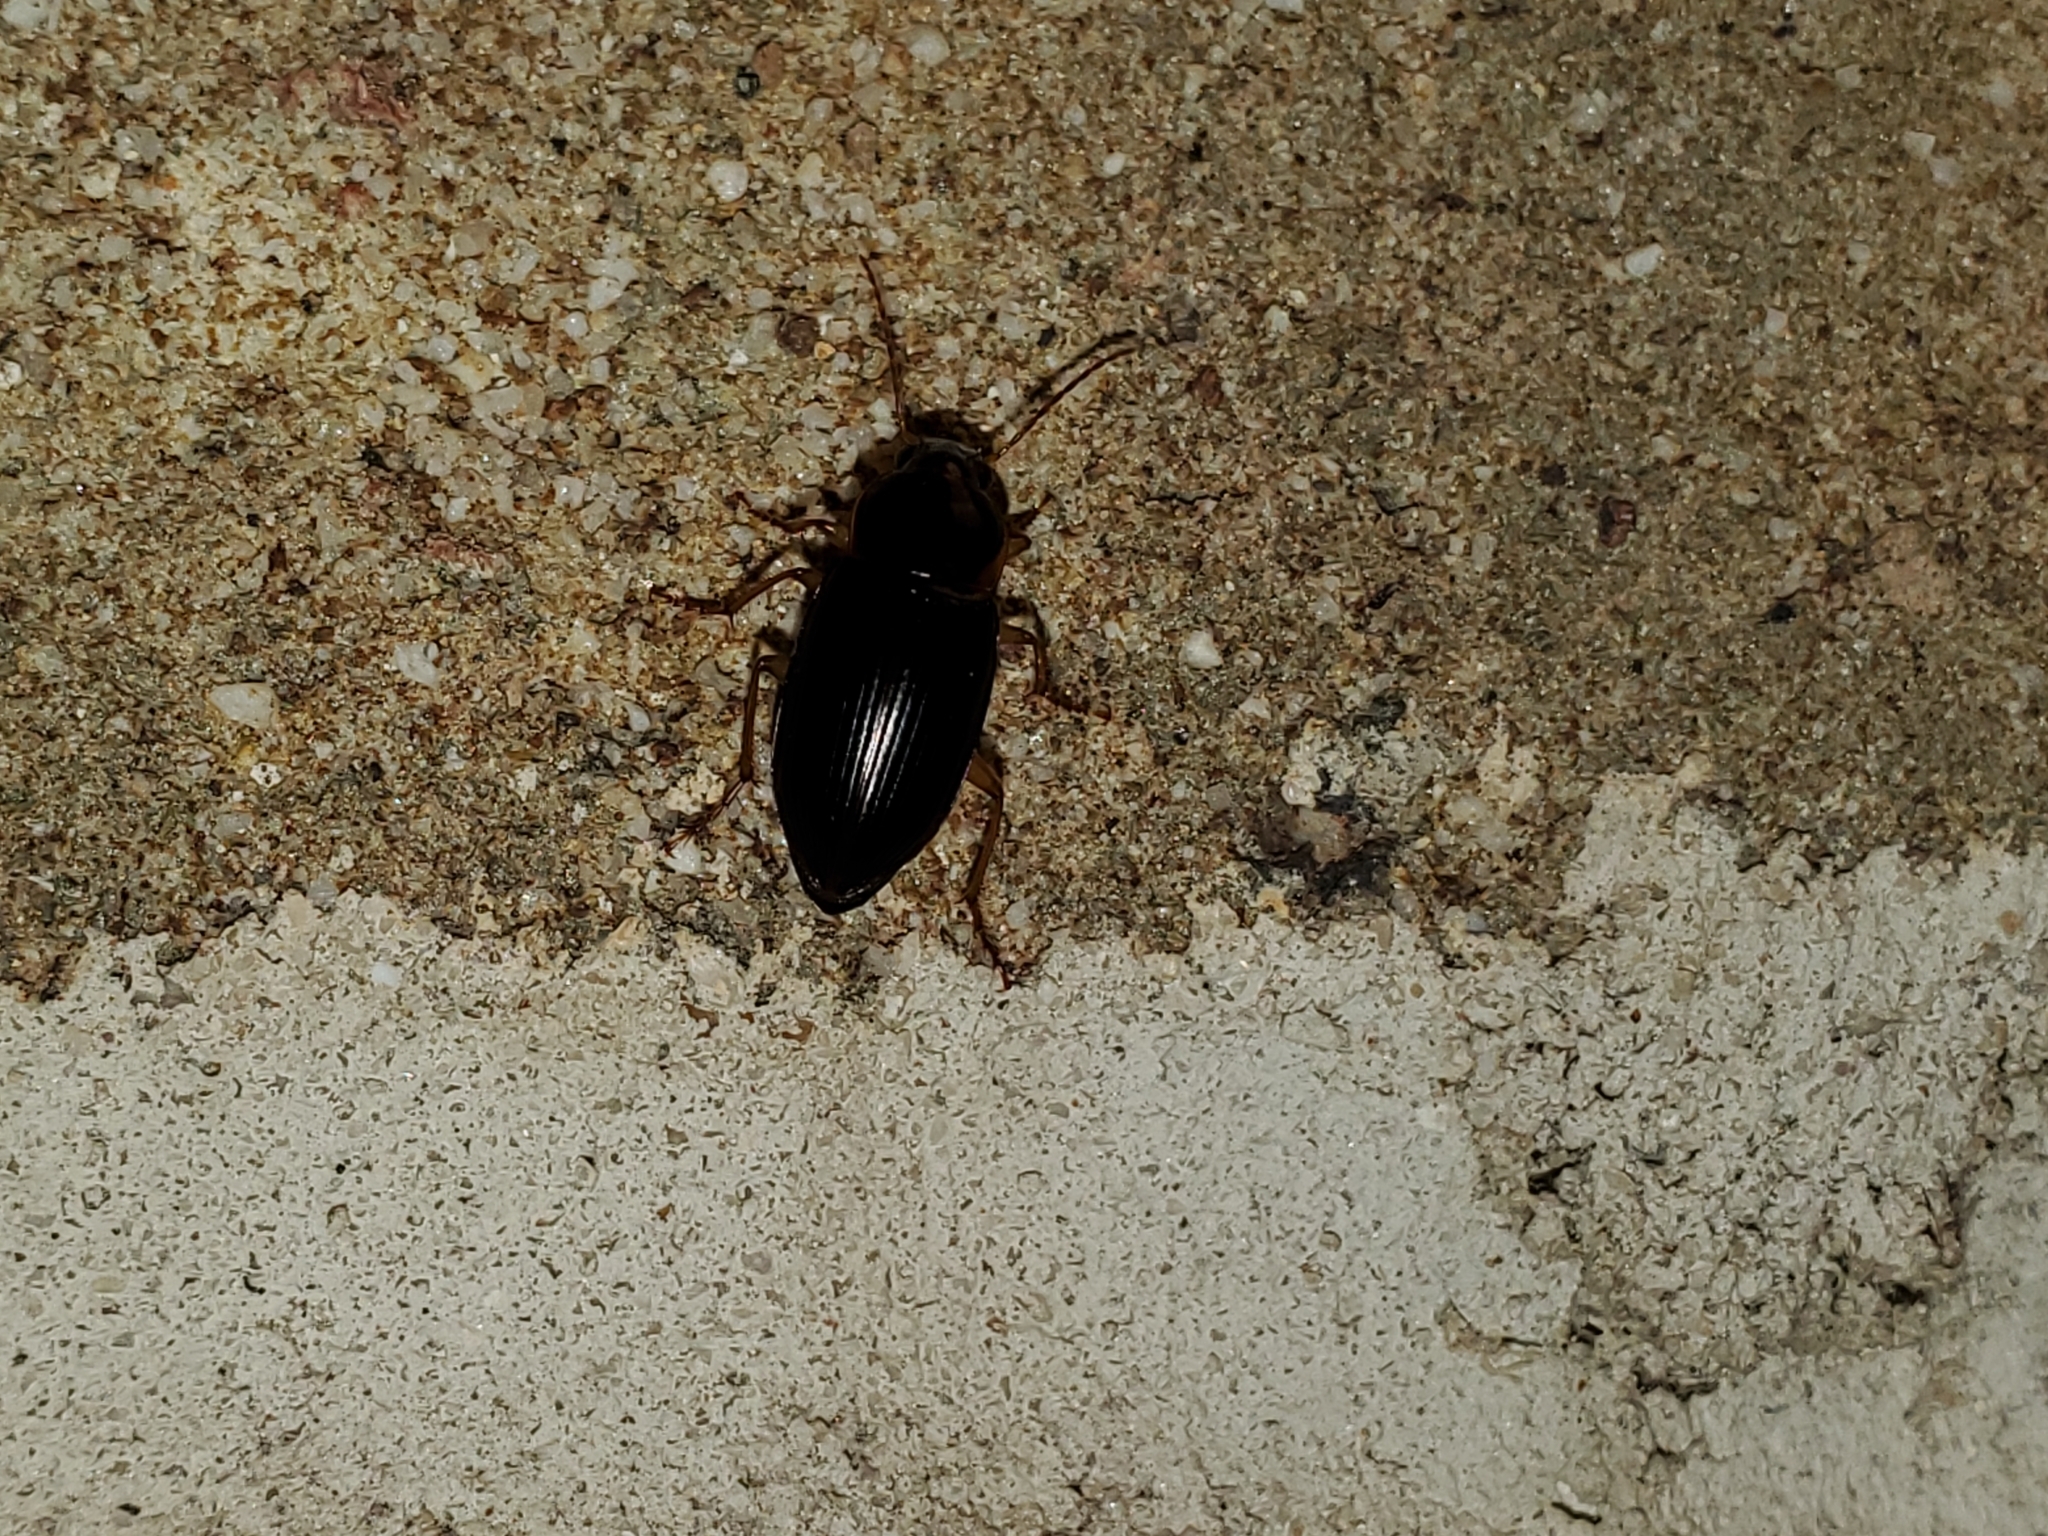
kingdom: Animalia
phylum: Arthropoda
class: Insecta
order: Coleoptera
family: Carabidae
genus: Notiobia
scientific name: Notiobia terminata
